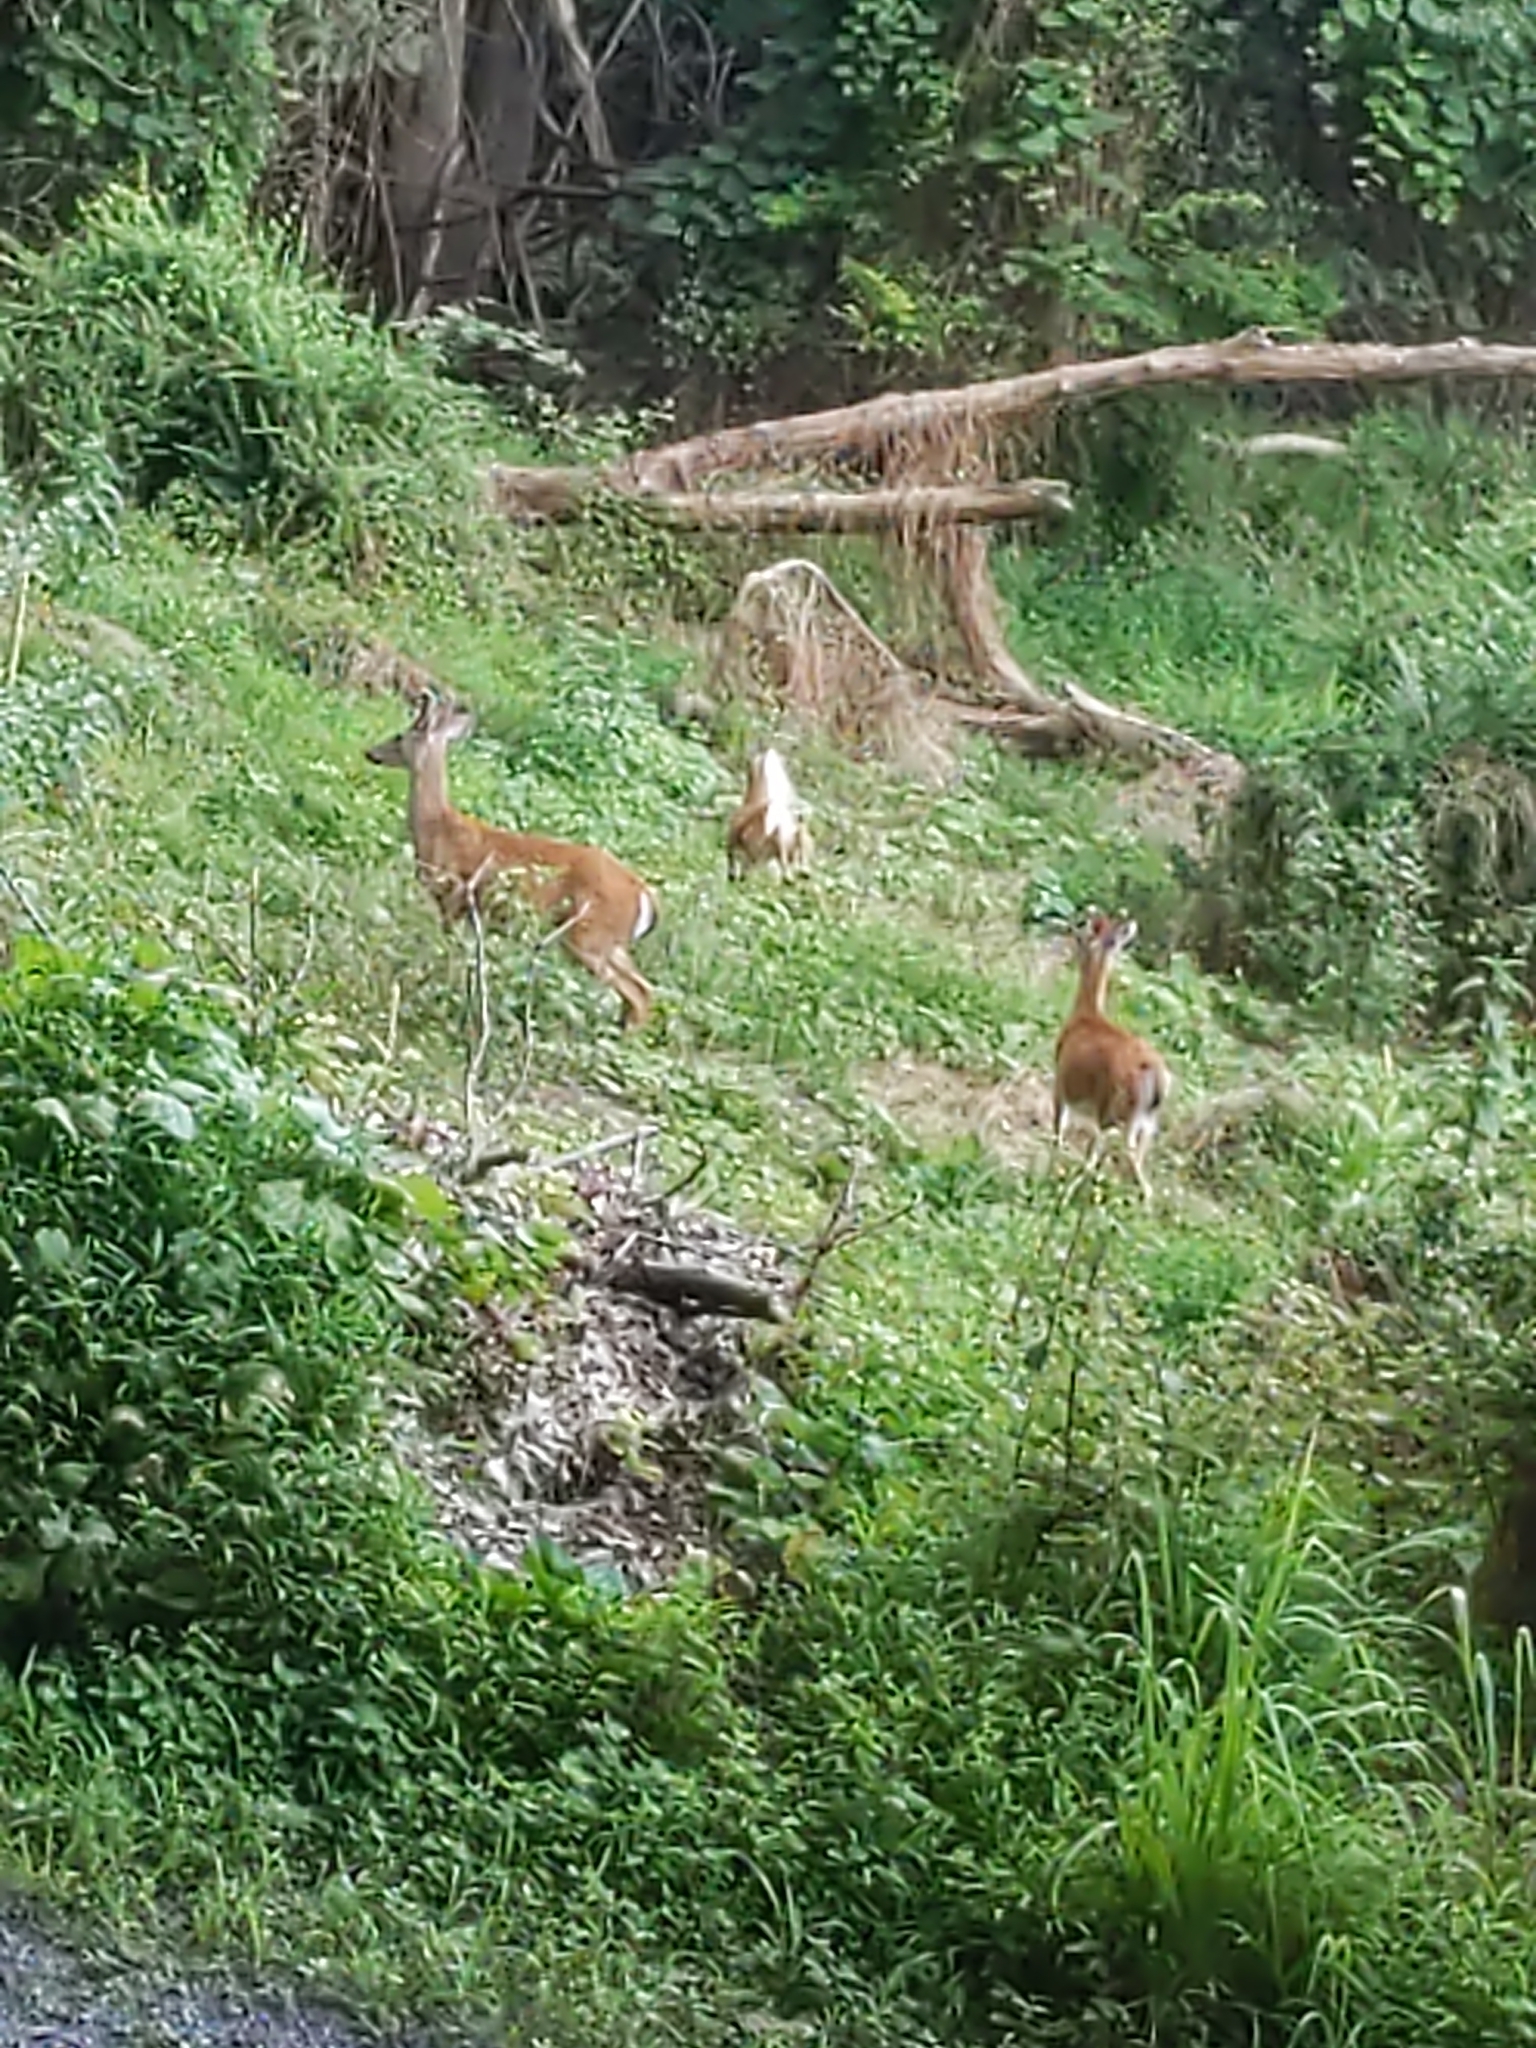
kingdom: Animalia
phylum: Chordata
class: Mammalia
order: Artiodactyla
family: Cervidae
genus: Odocoileus
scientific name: Odocoileus virginianus
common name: White-tailed deer
